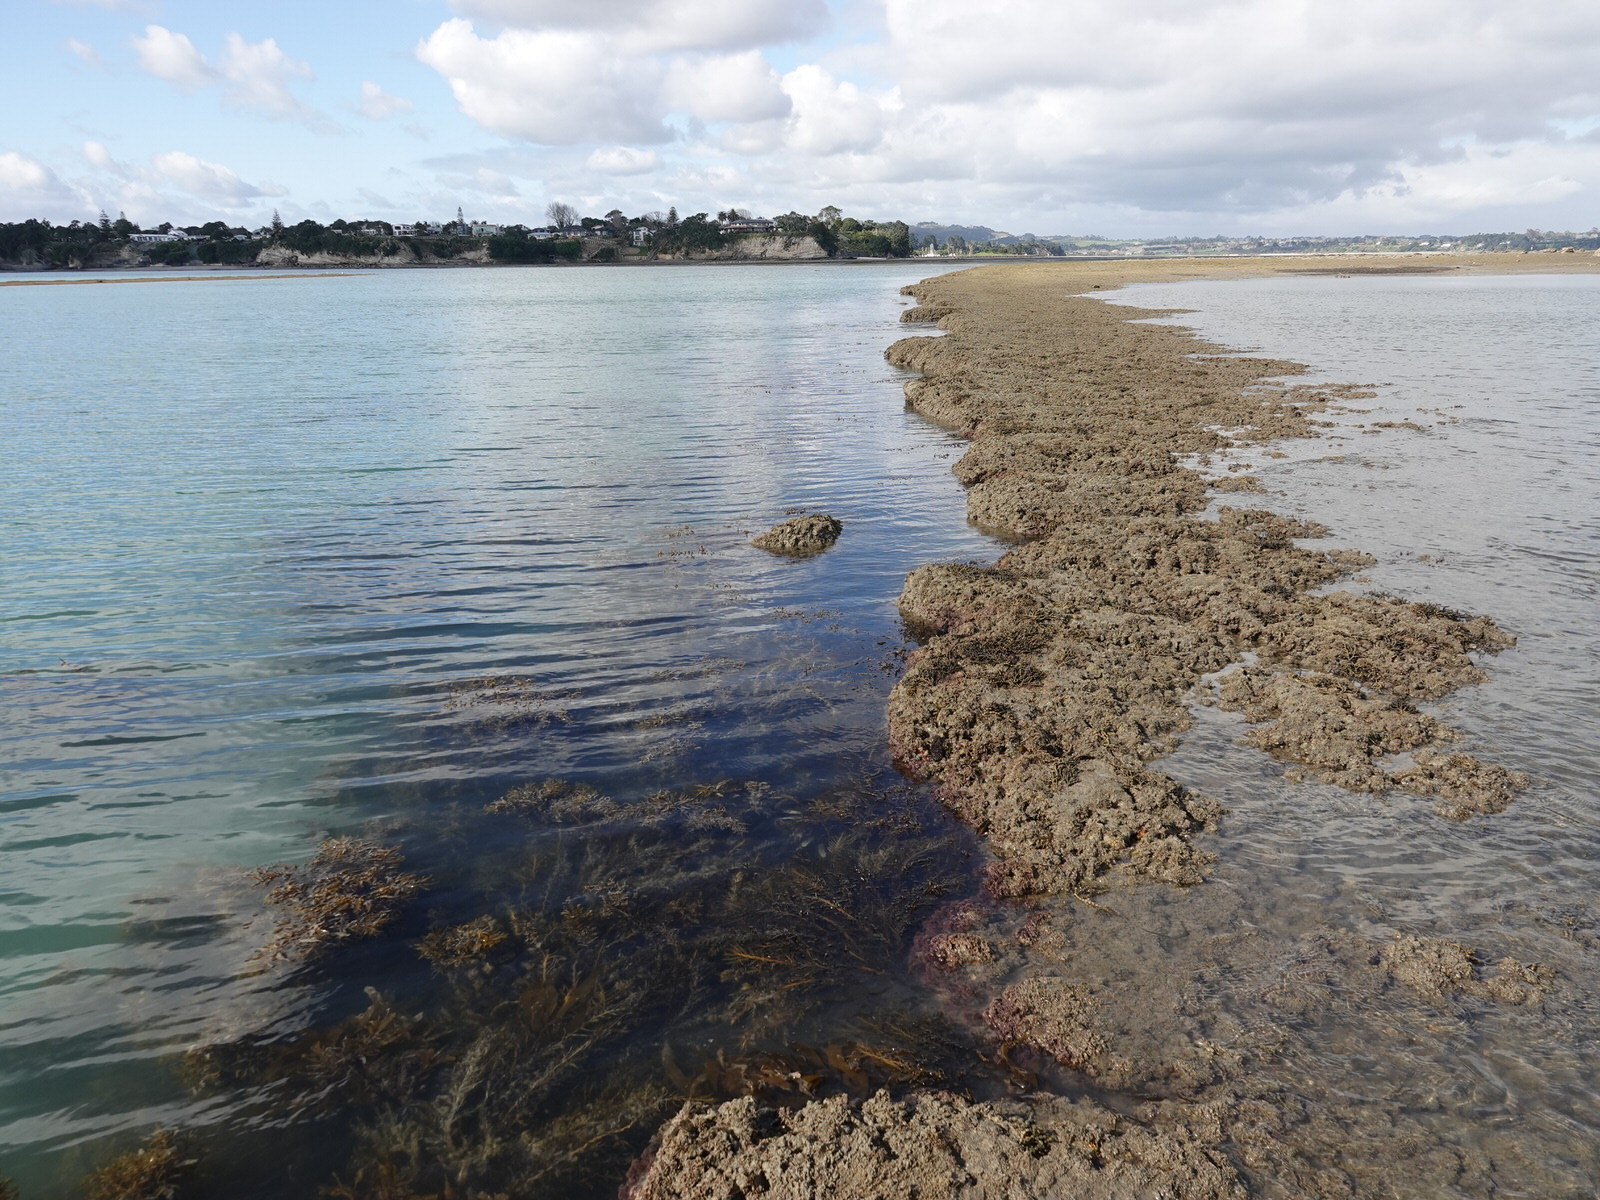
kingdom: Animalia
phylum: Porifera
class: Demospongiae
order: Clionaida
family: Clionaidae
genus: Cliona
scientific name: Cliona celata
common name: Boring sponge
